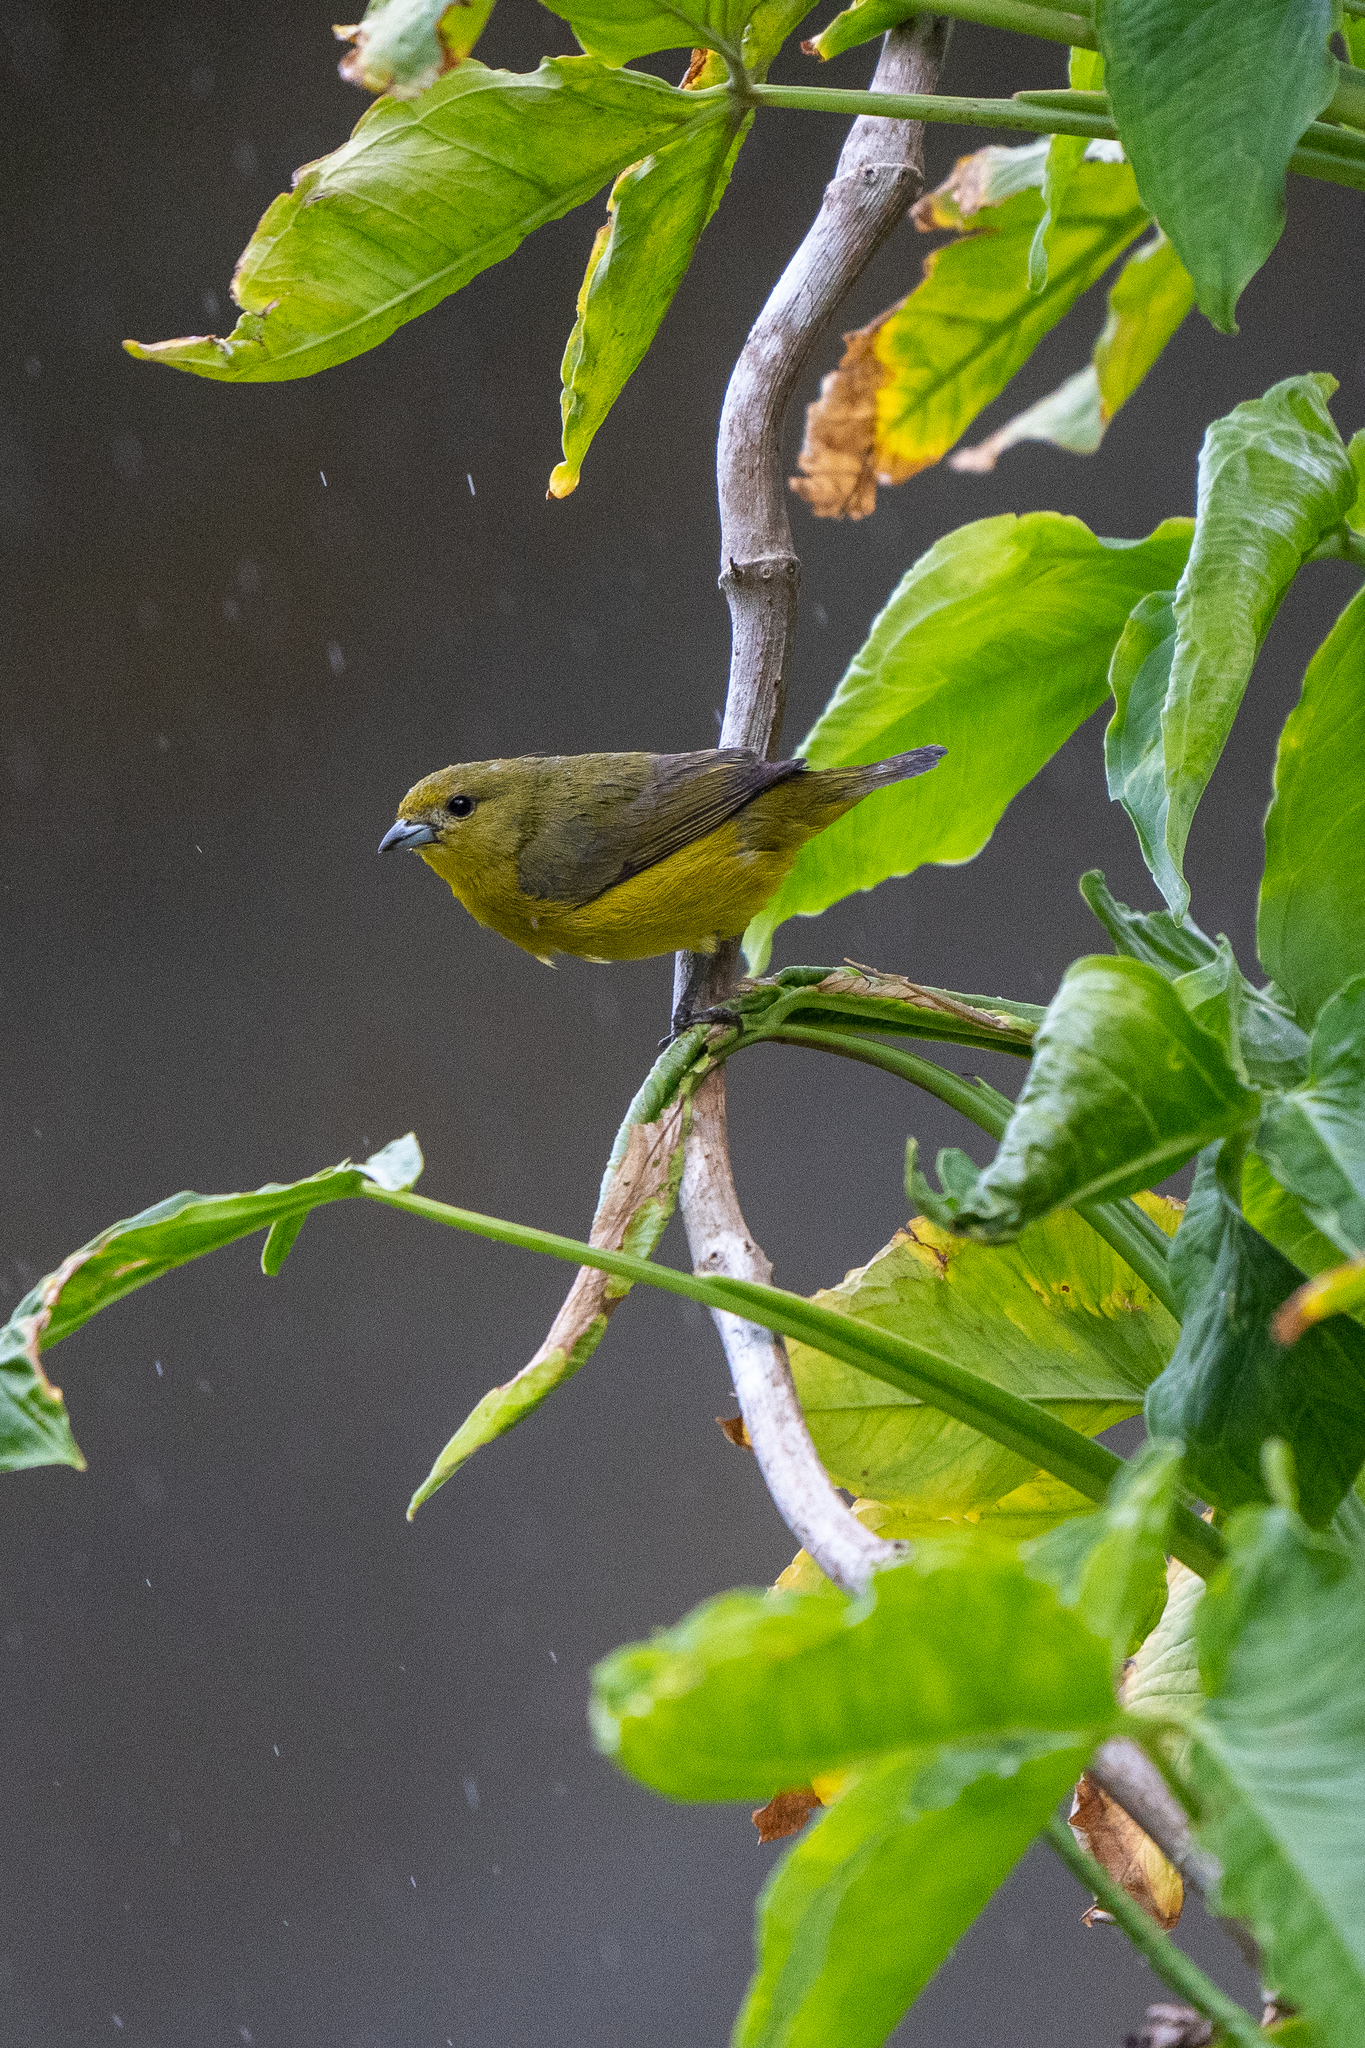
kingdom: Animalia
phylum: Chordata
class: Aves
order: Passeriformes
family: Fringillidae
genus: Euphonia
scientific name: Euphonia luteicapilla
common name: Yellow-crowned euphonia
